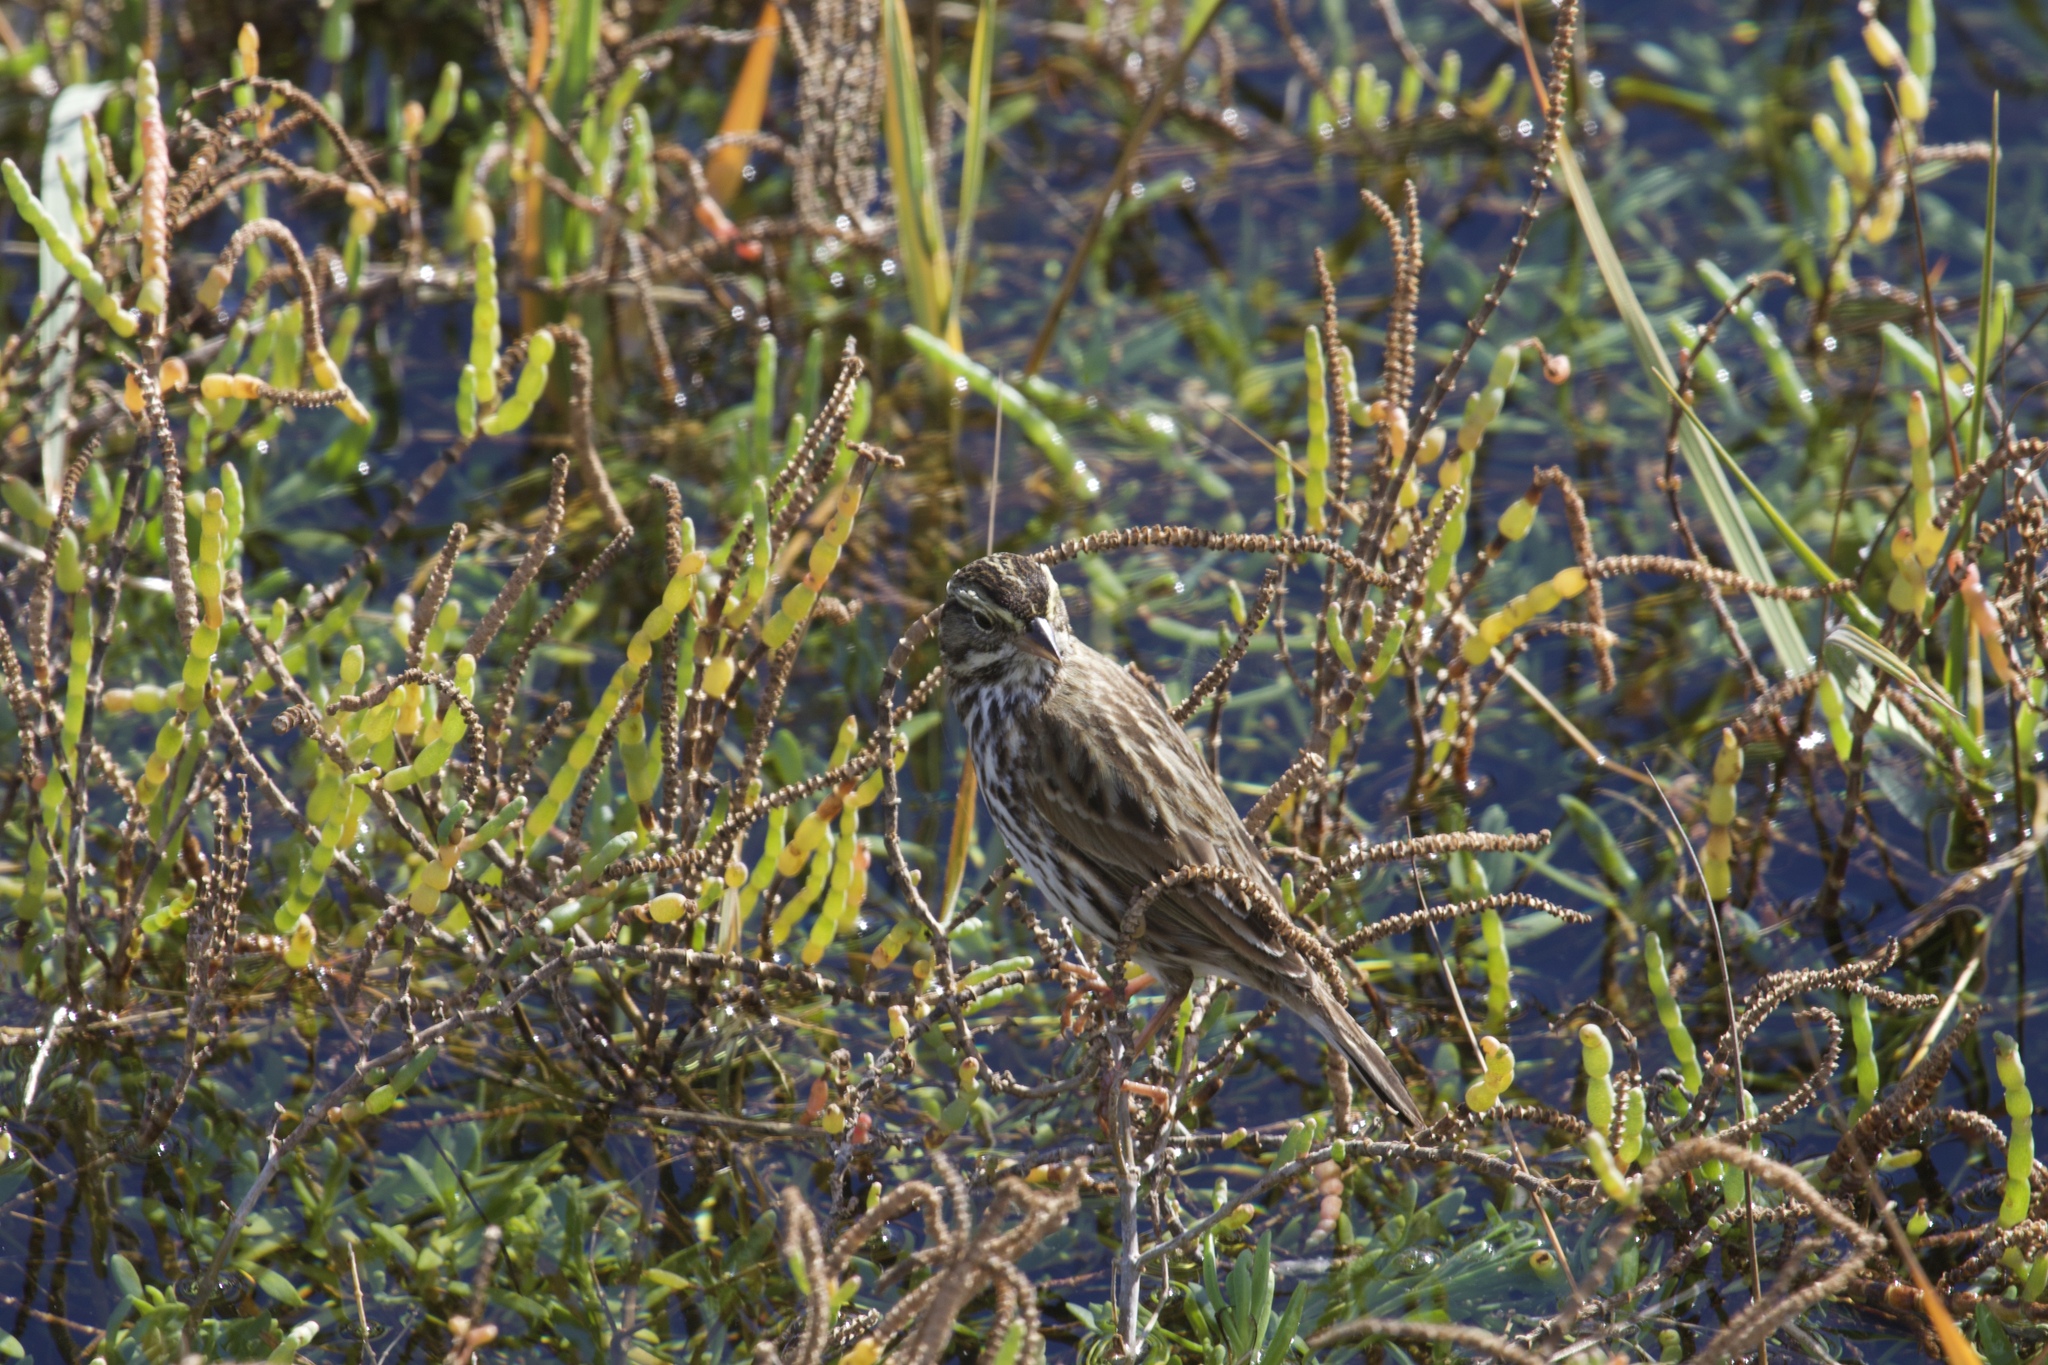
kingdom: Animalia
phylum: Chordata
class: Aves
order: Passeriformes
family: Passerellidae
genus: Passerculus
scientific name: Passerculus sandwichensis
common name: Savannah sparrow
